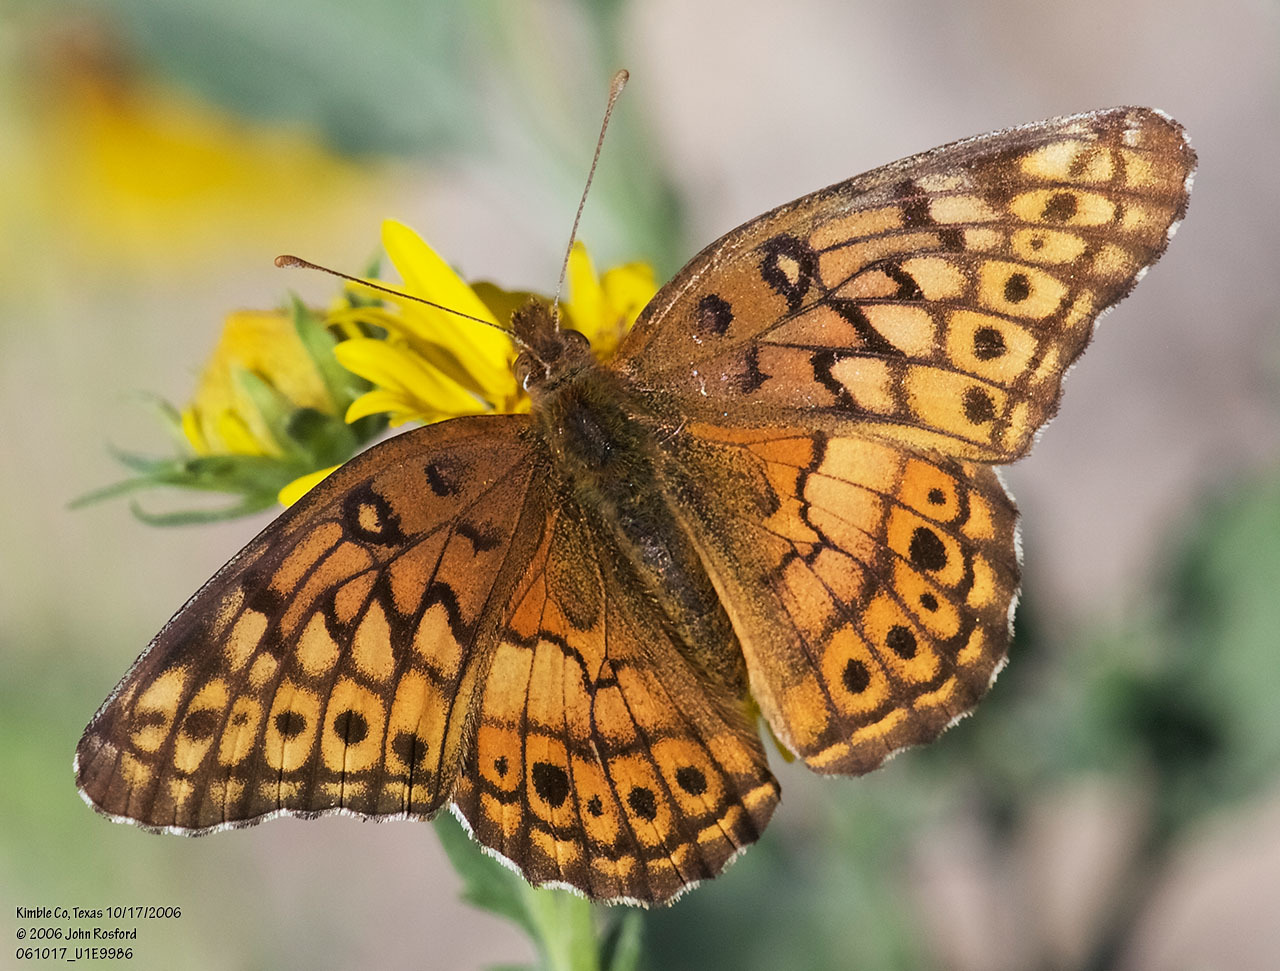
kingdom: Animalia
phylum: Arthropoda
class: Insecta
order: Lepidoptera
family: Nymphalidae
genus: Euptoieta
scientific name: Euptoieta claudia
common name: Variegated fritillary
